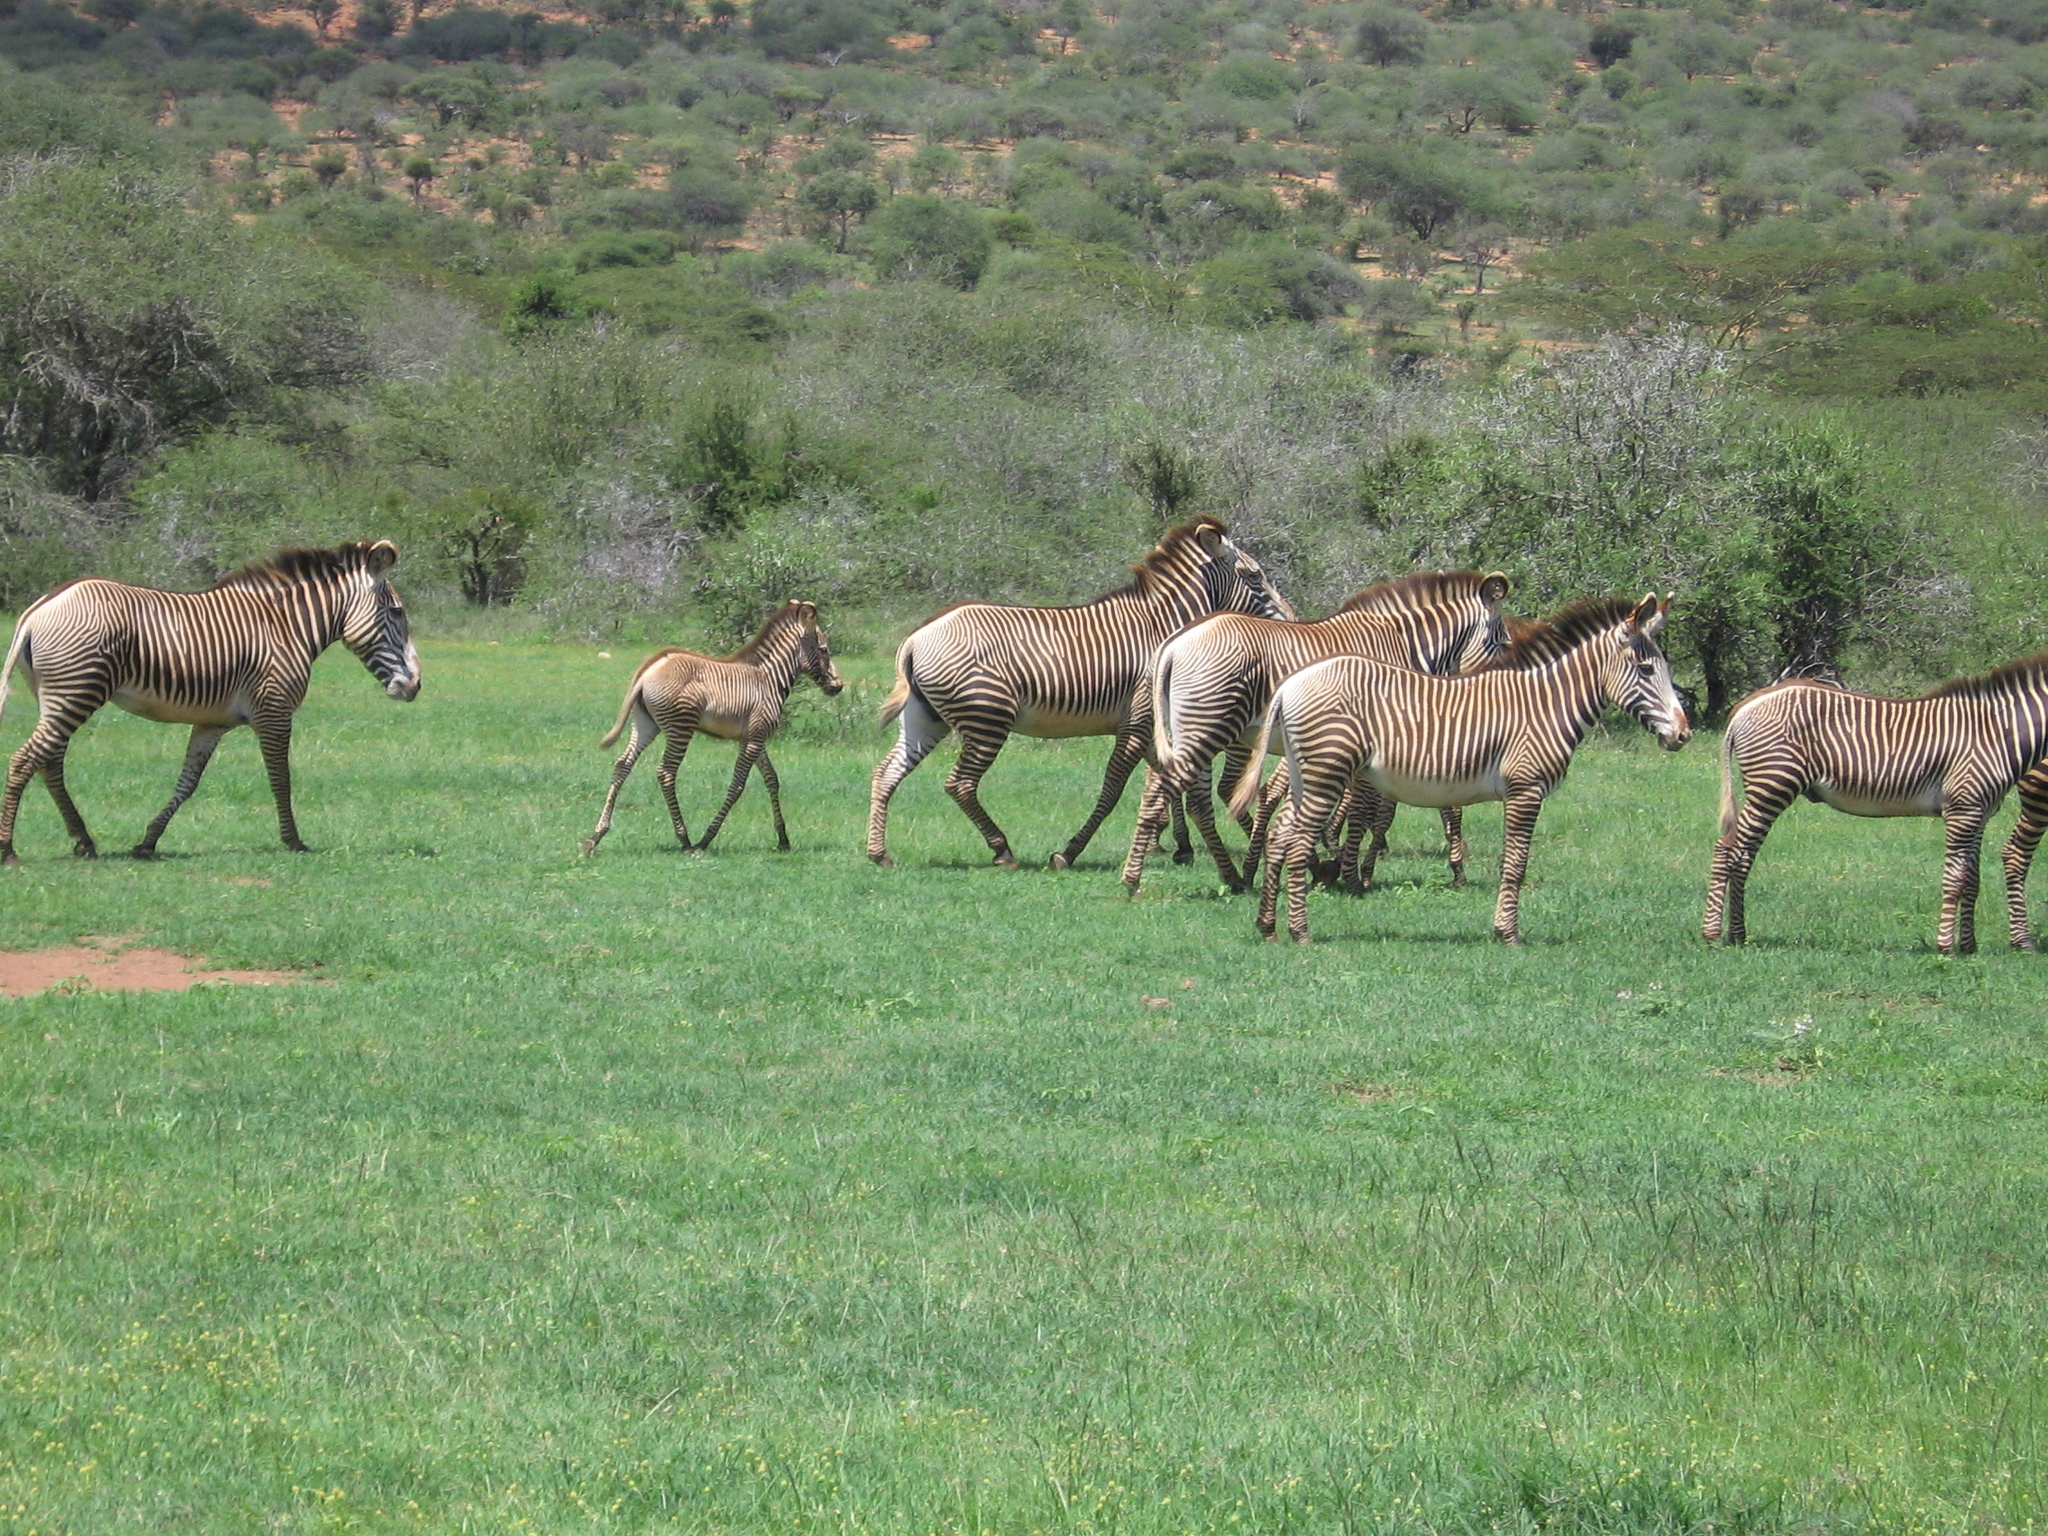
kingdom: Animalia
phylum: Chordata
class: Mammalia
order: Perissodactyla
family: Equidae
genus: Equus
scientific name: Equus grevyi
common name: Grevy's zebra
